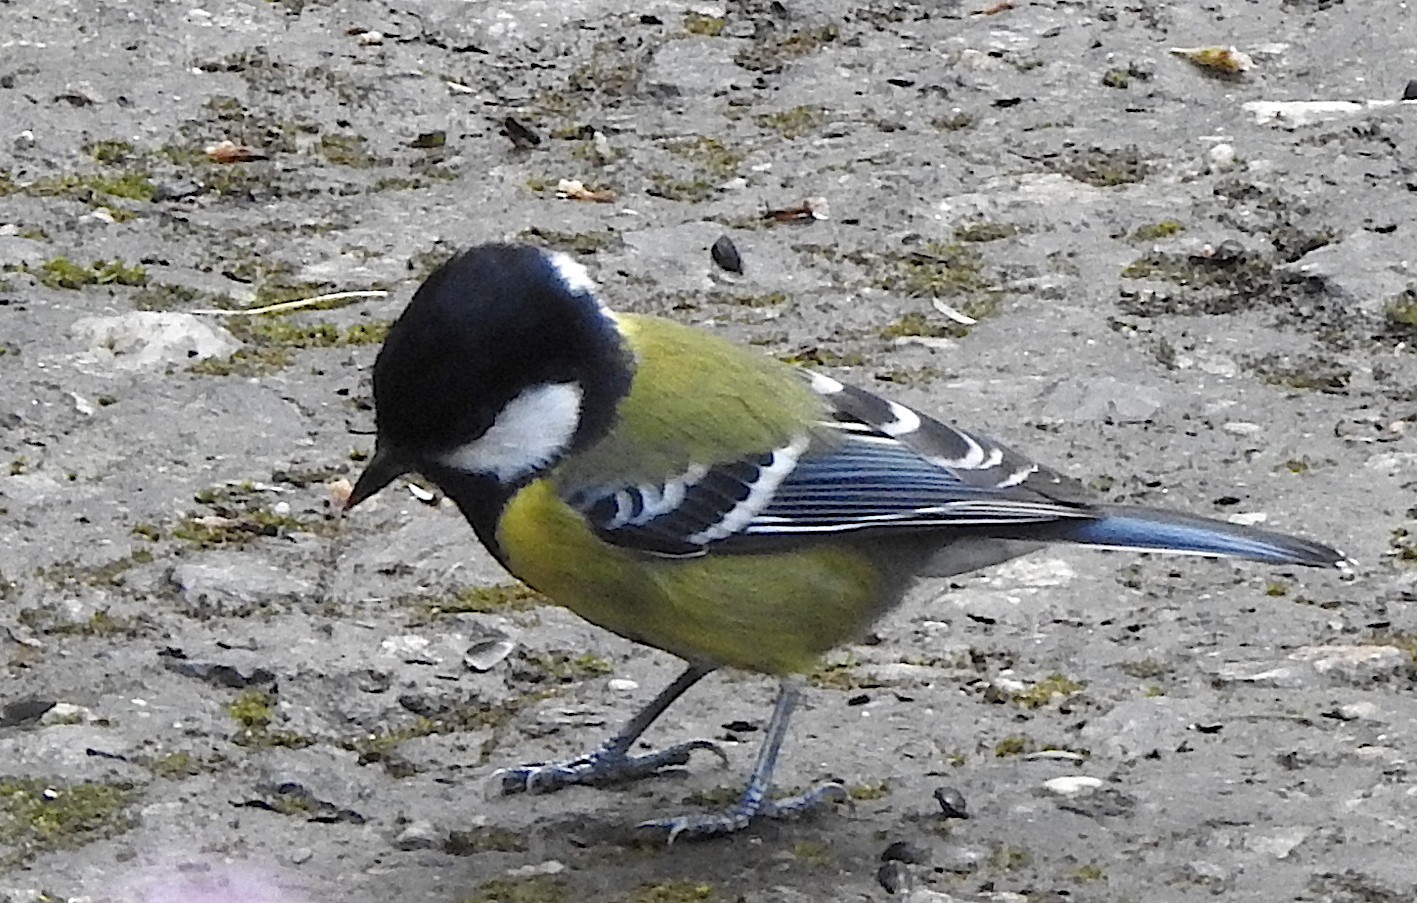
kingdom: Animalia
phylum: Chordata
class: Aves
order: Passeriformes
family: Paridae
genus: Parus
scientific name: Parus monticolus
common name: Green-backed tit
